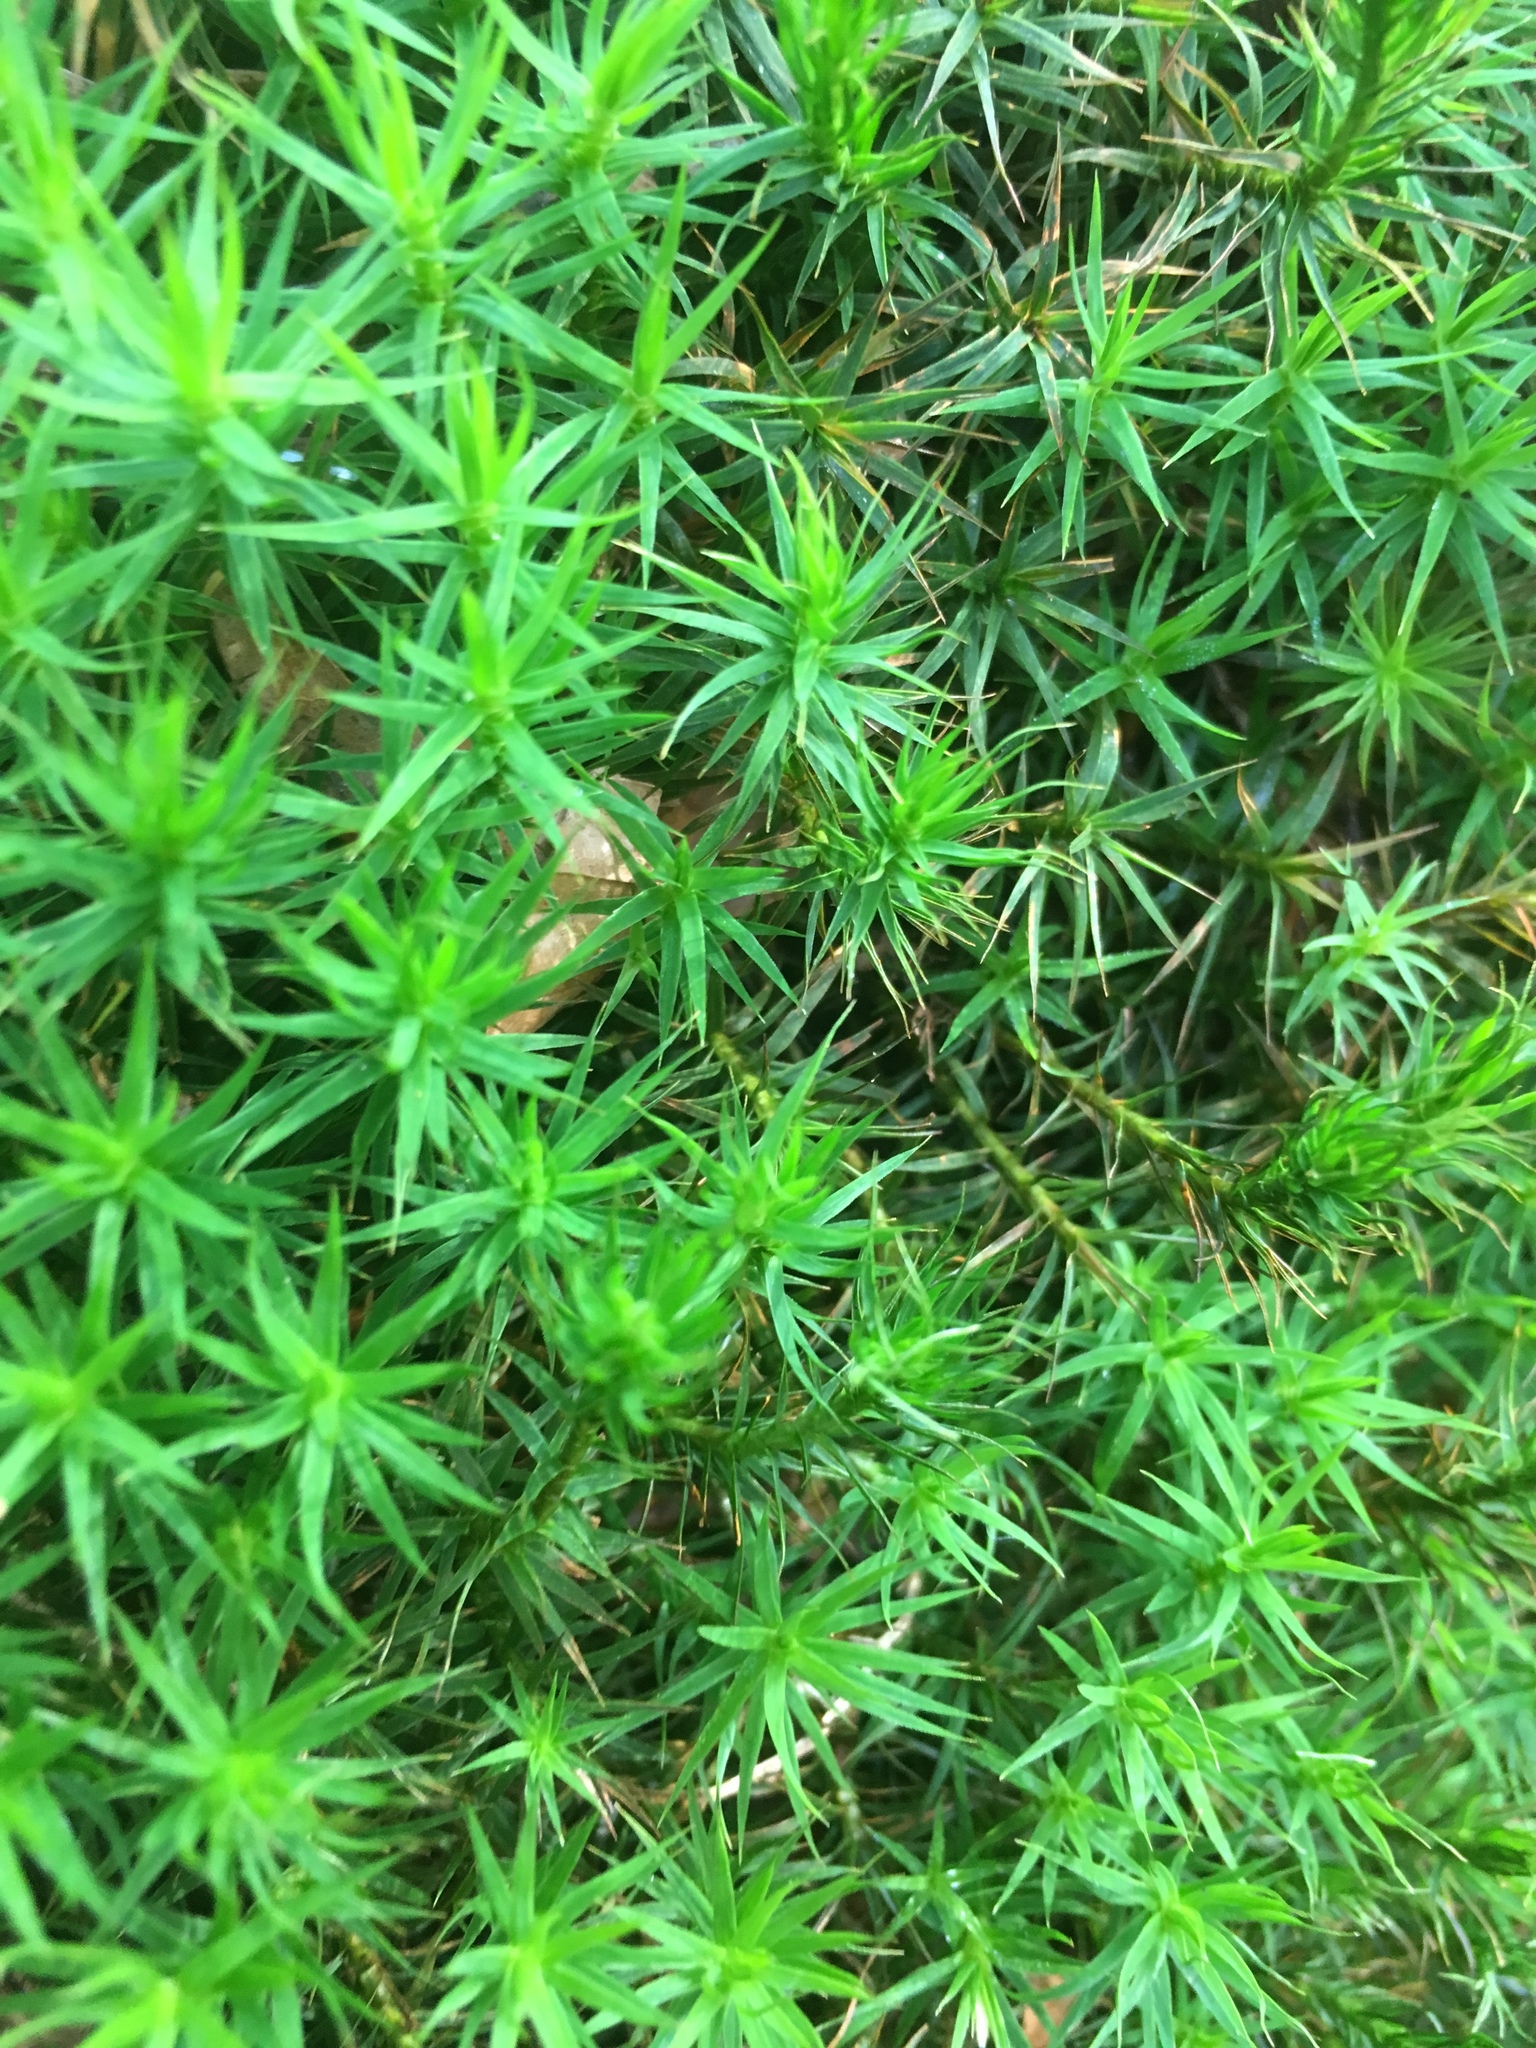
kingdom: Plantae
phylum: Bryophyta
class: Polytrichopsida
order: Polytrichales
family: Polytrichaceae
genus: Polytrichum
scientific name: Polytrichum formosum
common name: Bank haircap moss
